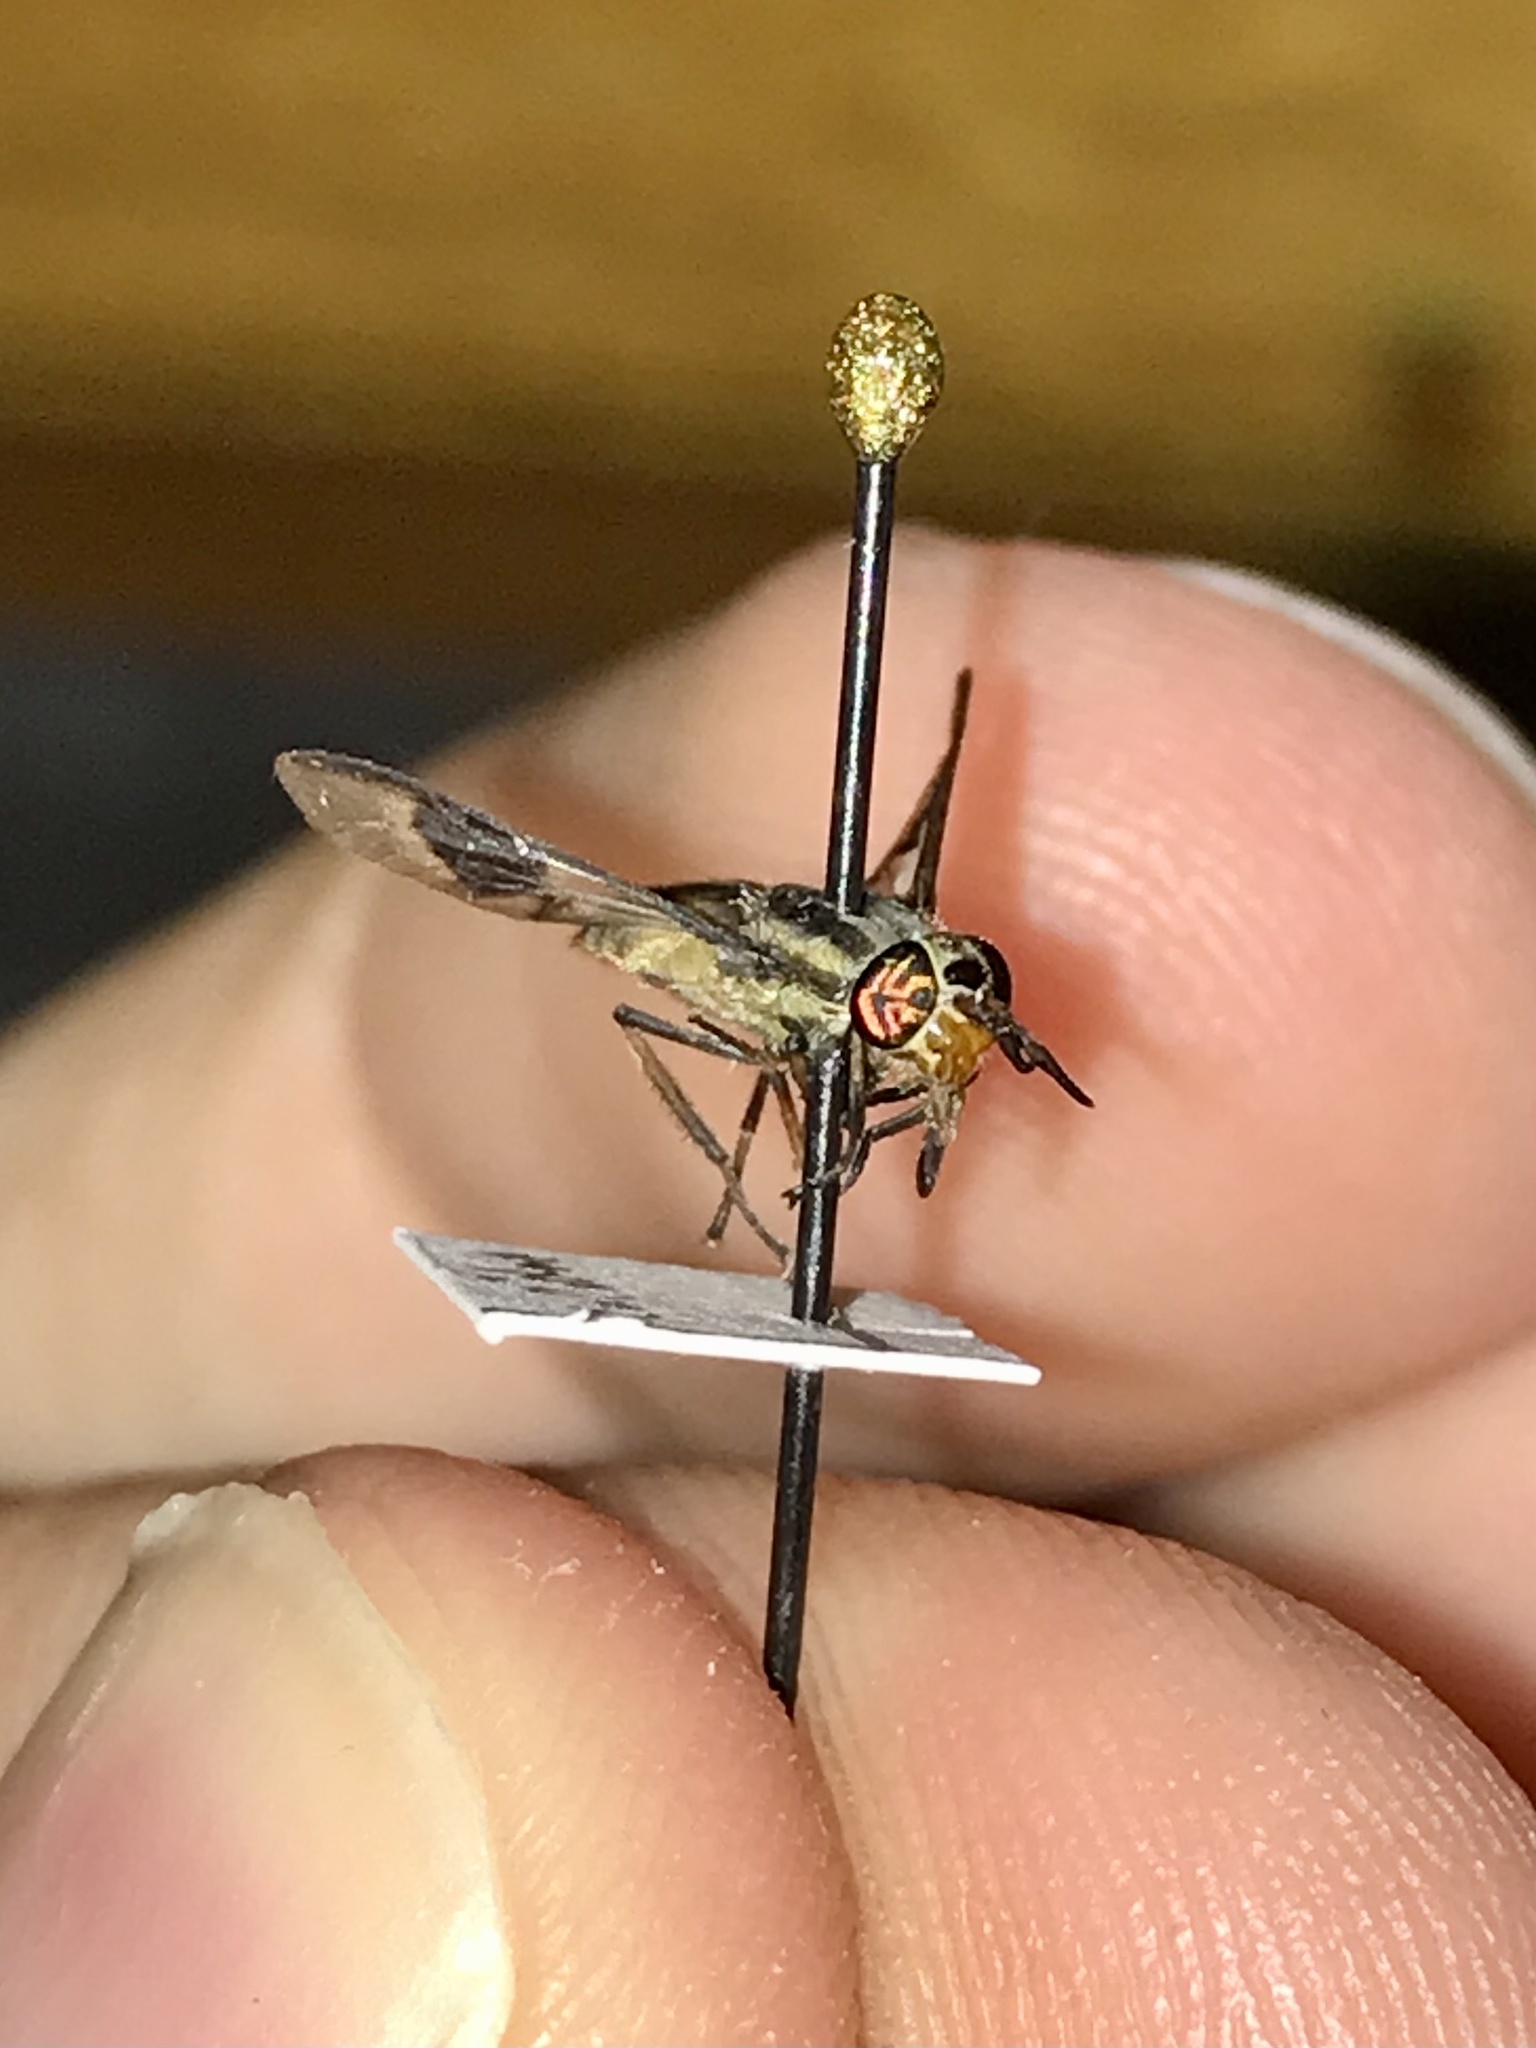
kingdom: Animalia
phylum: Arthropoda
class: Insecta
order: Diptera
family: Tabanidae
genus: Chrysops
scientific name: Chrysops callidus
